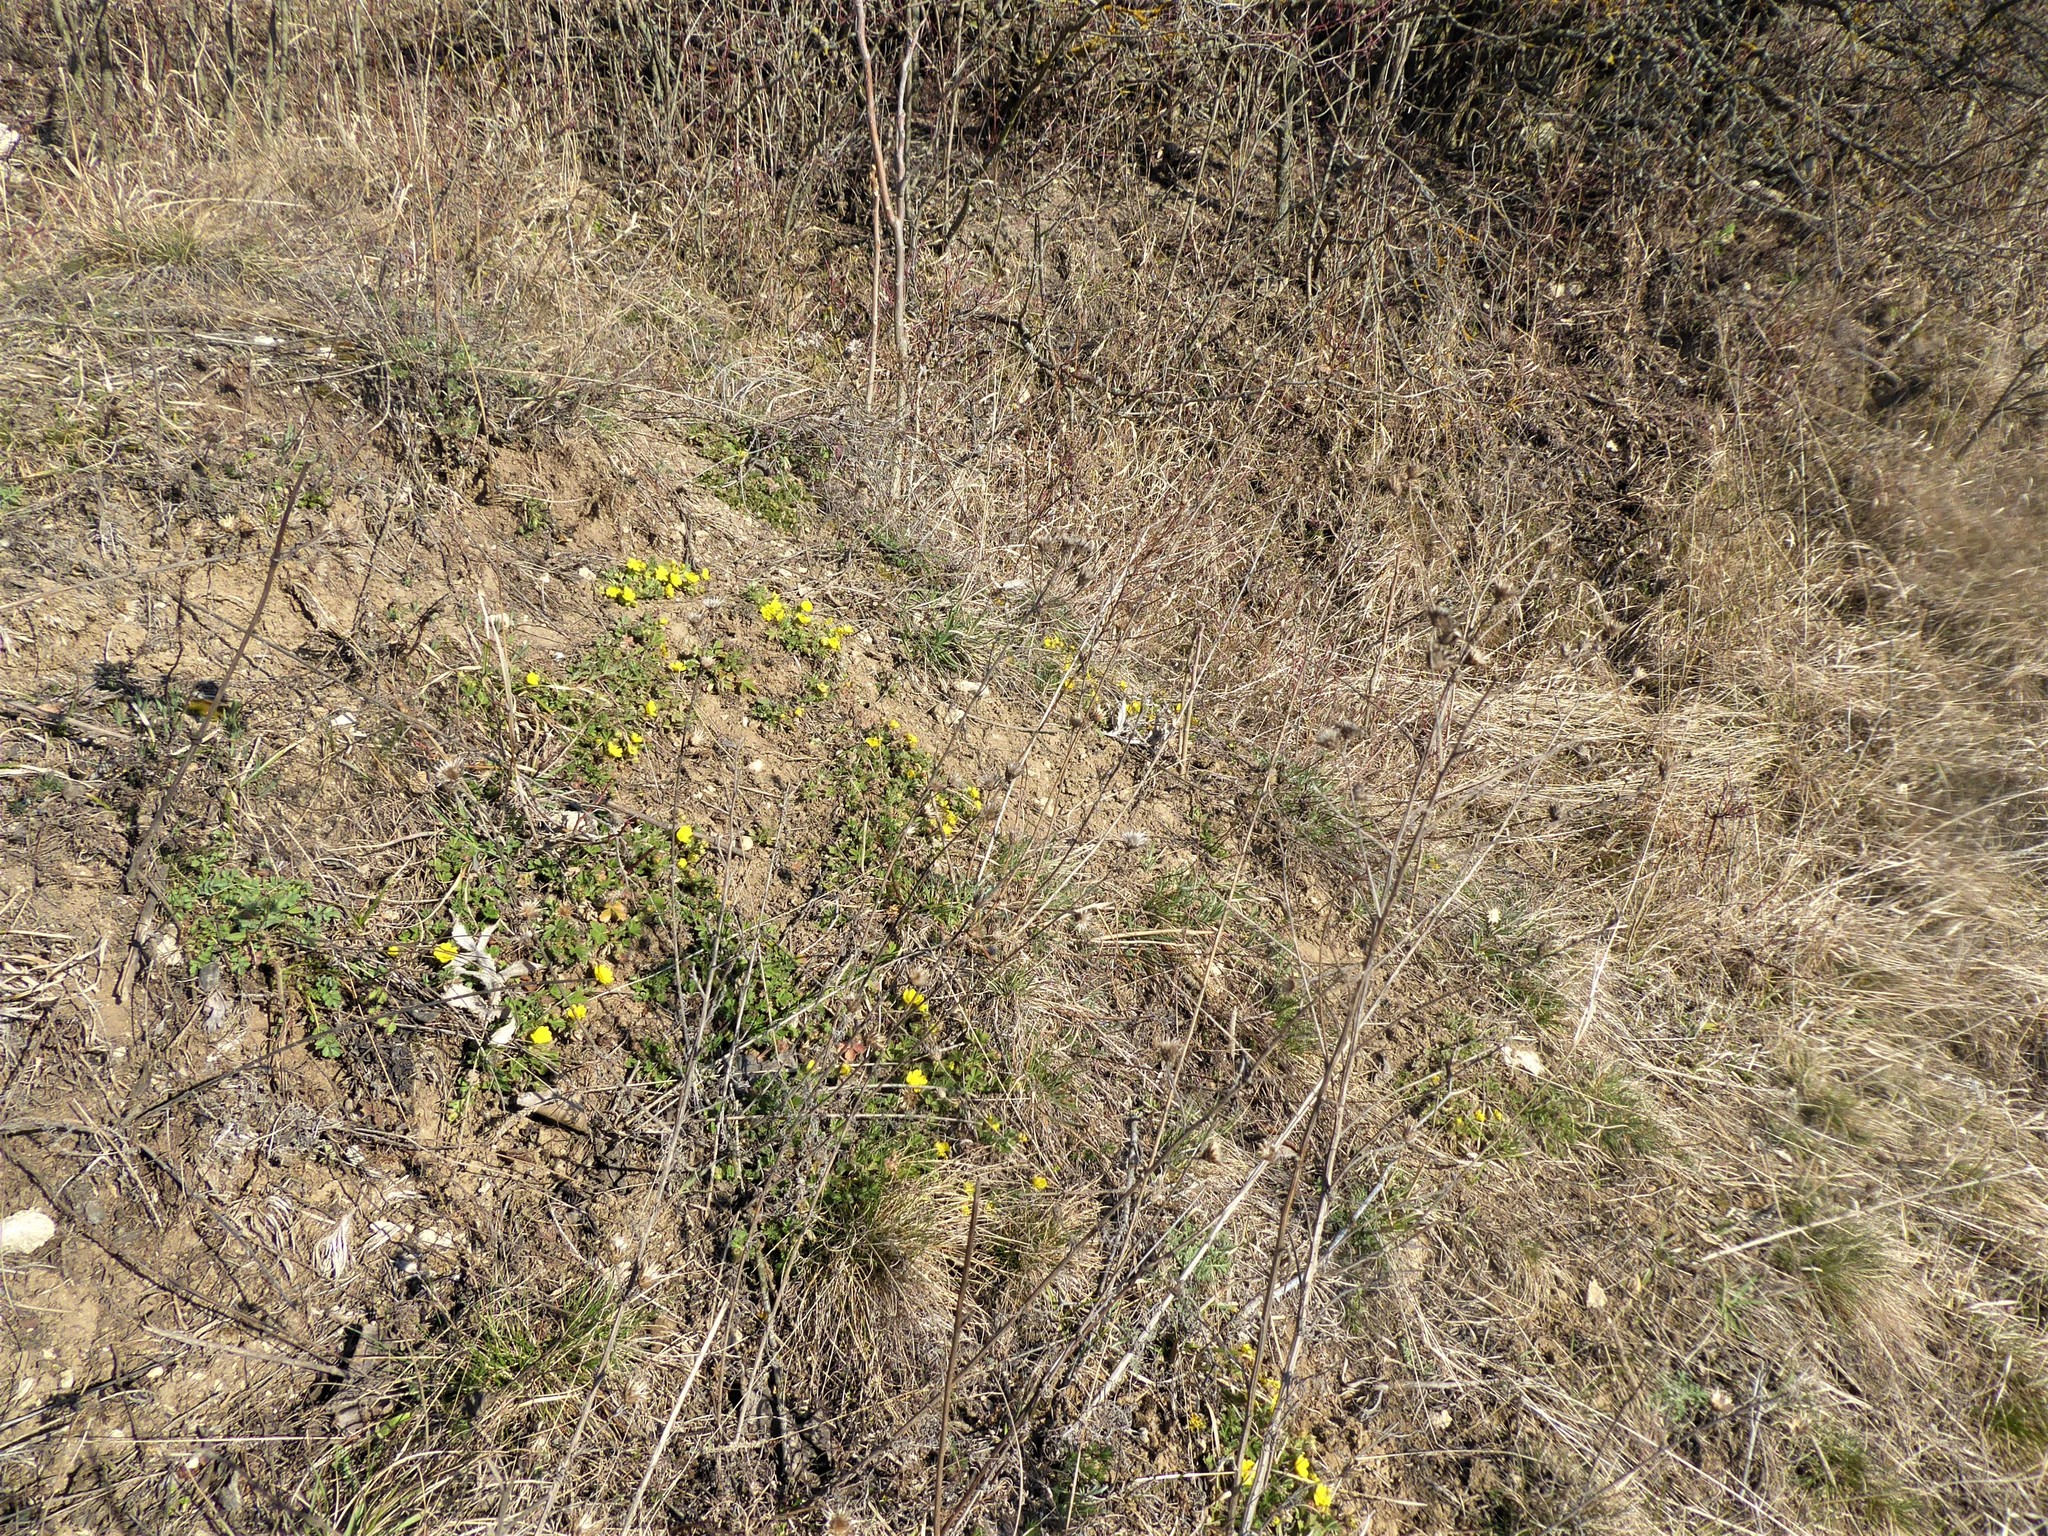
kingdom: Plantae
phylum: Tracheophyta
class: Magnoliopsida
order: Rosales
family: Rosaceae
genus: Potentilla
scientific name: Potentilla incana
